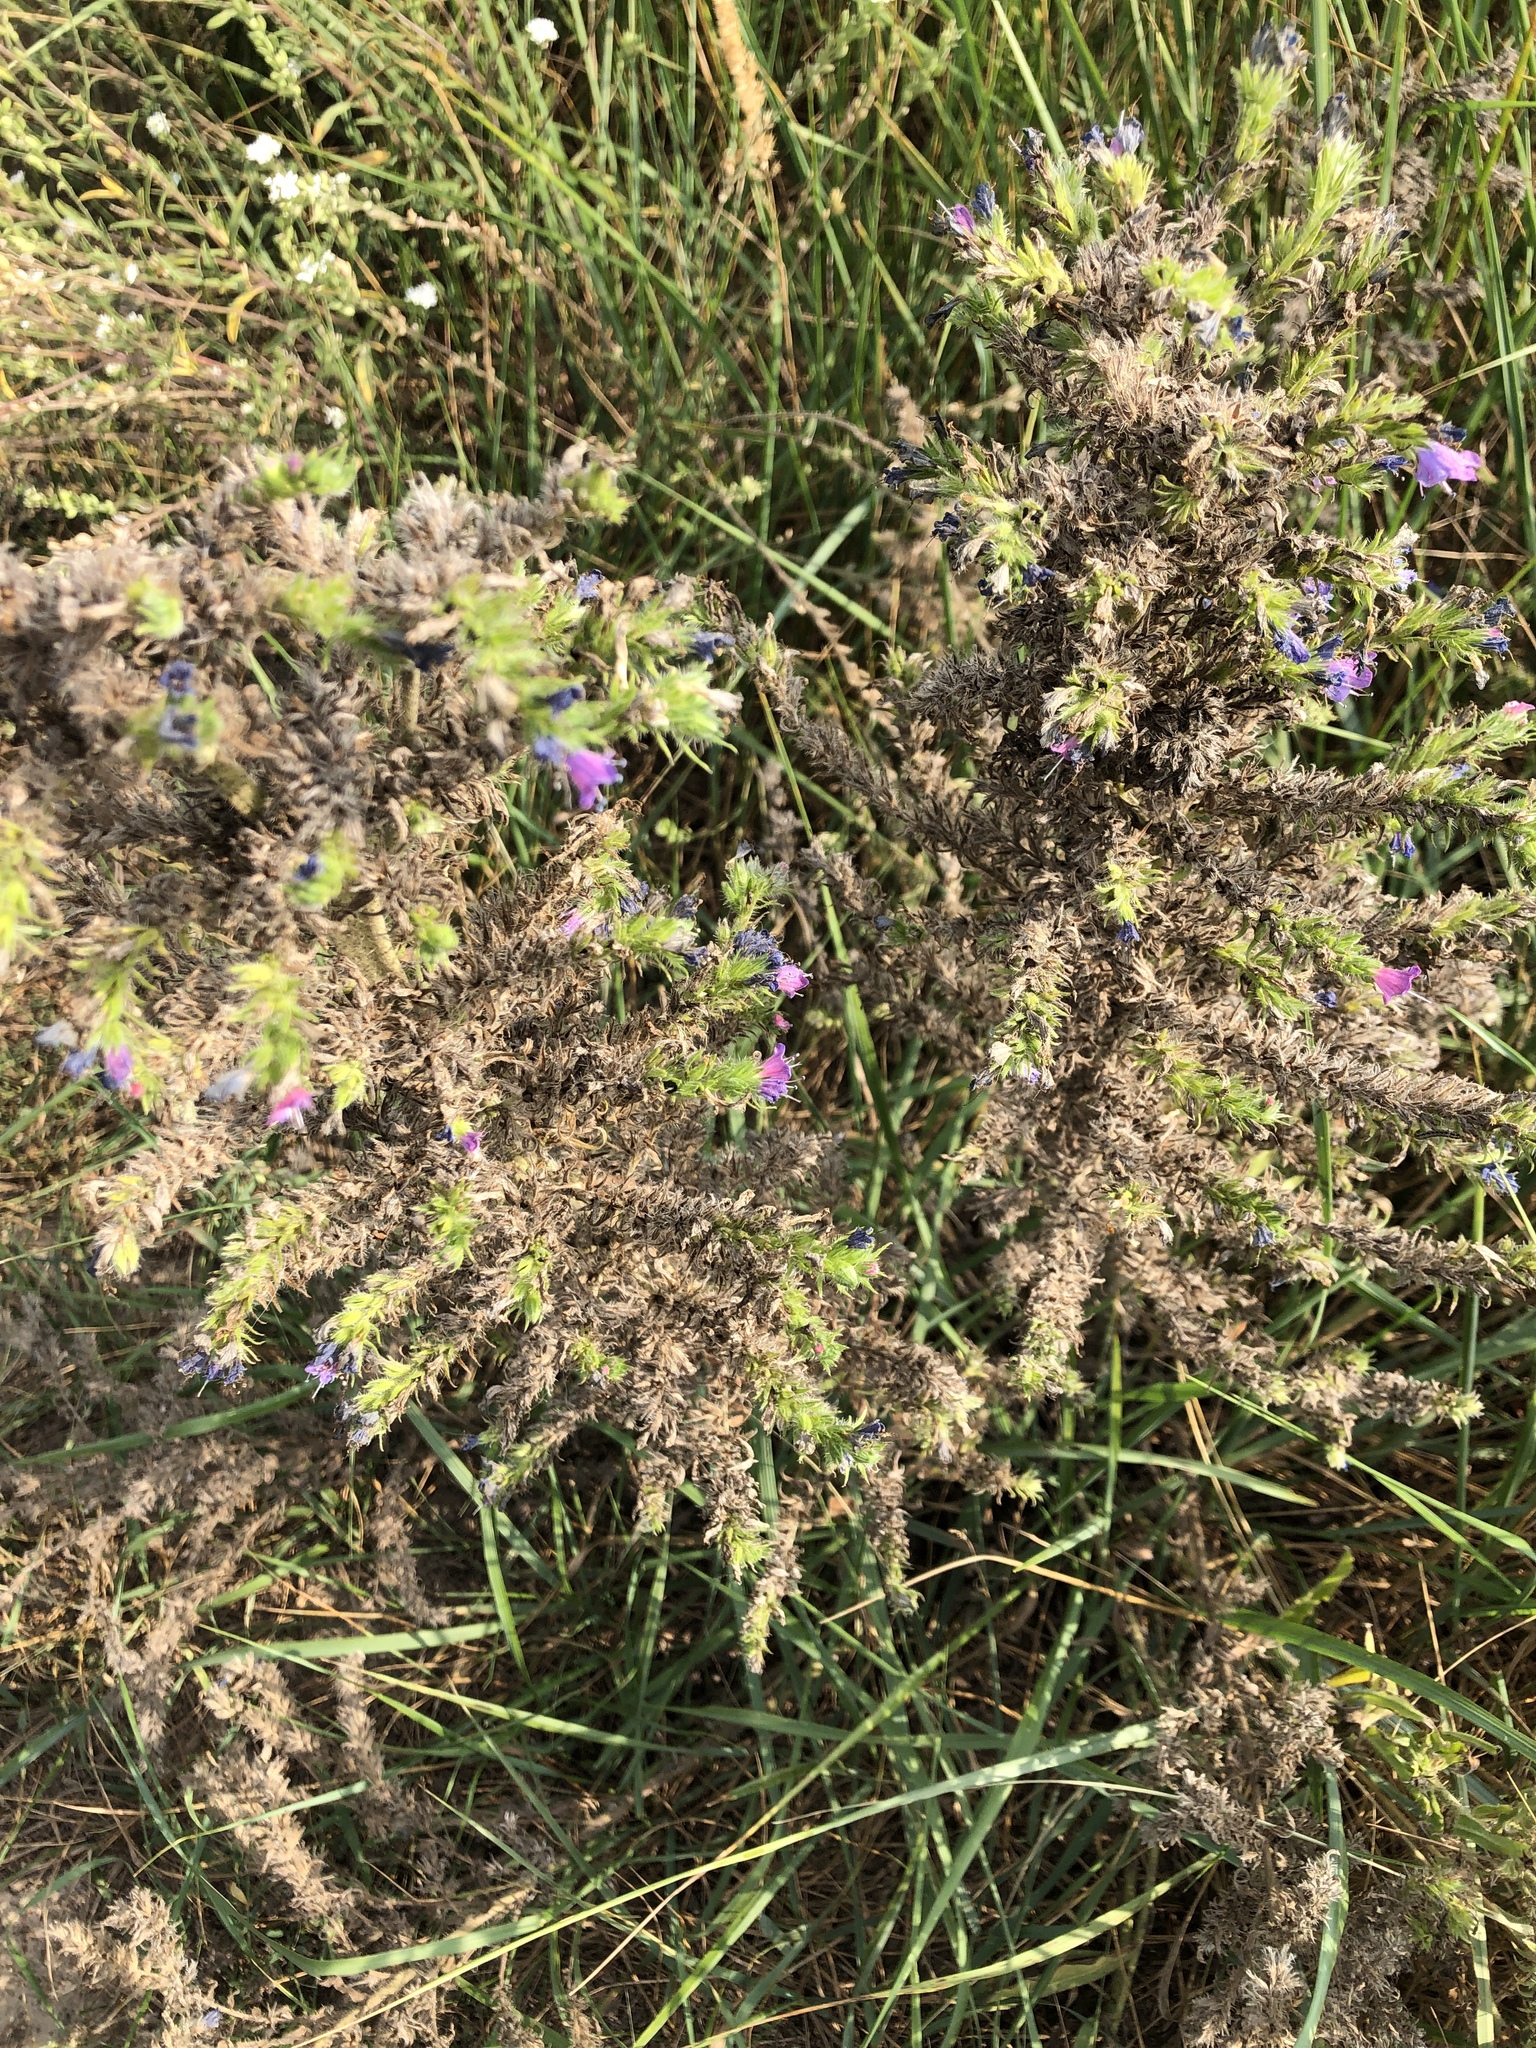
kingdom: Plantae
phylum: Tracheophyta
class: Magnoliopsida
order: Boraginales
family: Boraginaceae
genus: Echium
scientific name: Echium vulgare
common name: Common viper's bugloss
